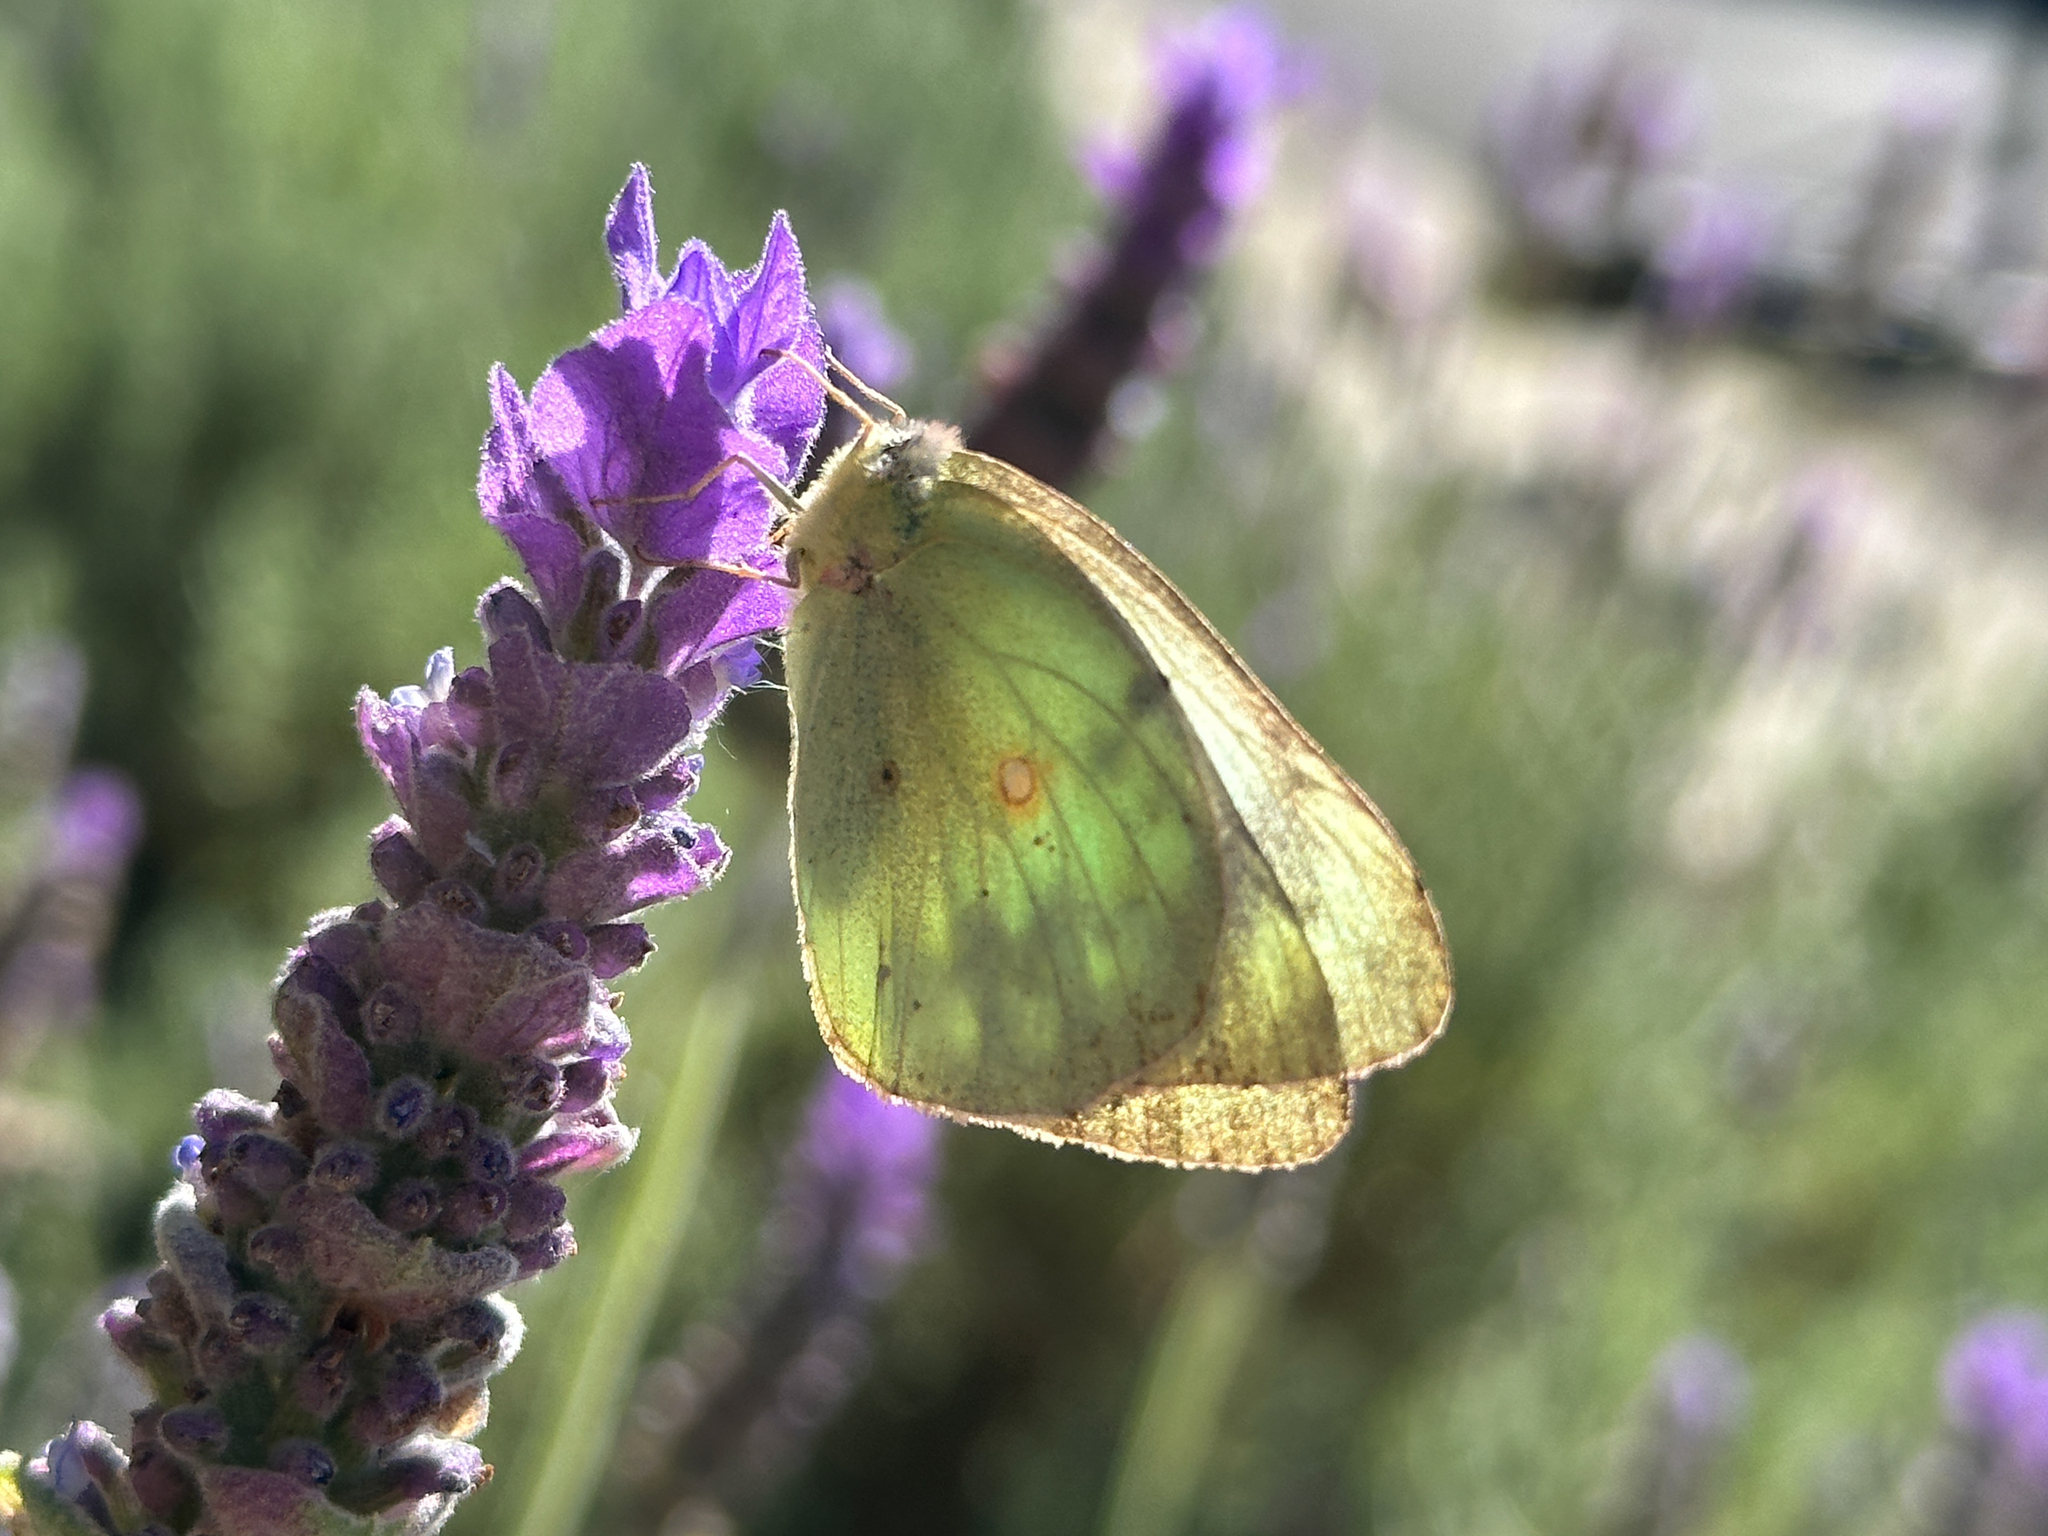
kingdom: Animalia
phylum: Arthropoda
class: Insecta
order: Lepidoptera
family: Pieridae
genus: Colias
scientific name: Colias eurytheme
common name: Alfalfa butterfly
